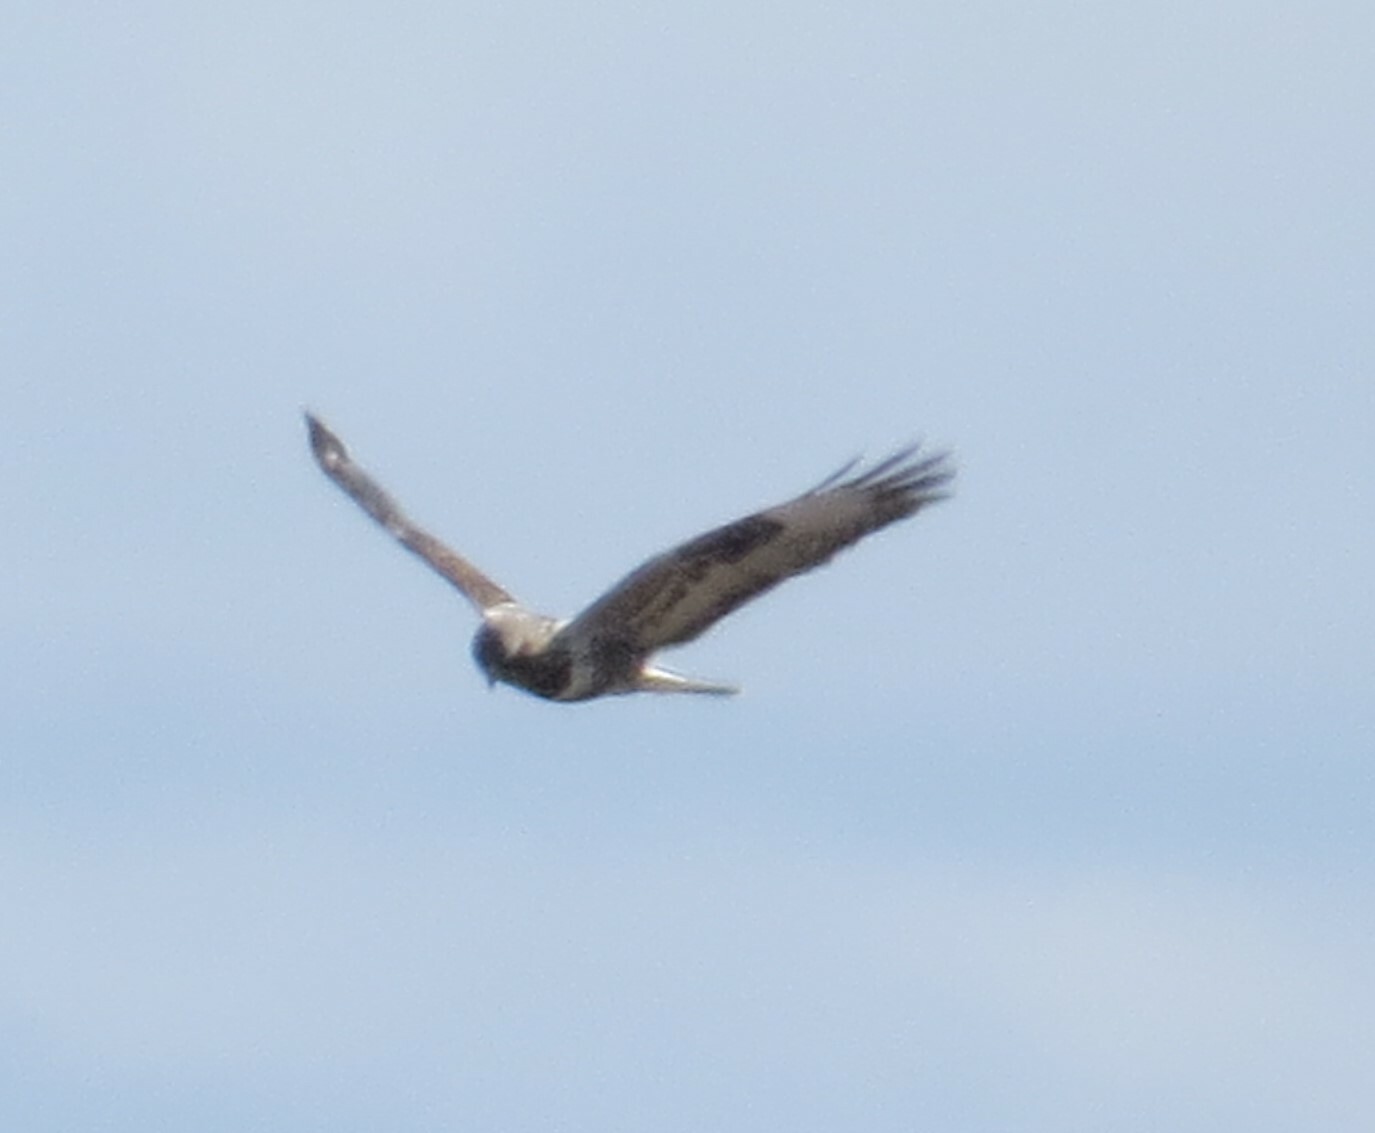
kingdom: Animalia
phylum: Chordata
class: Aves
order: Accipitriformes
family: Accipitridae
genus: Buteo
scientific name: Buteo lagopus
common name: Rough-legged buzzard
